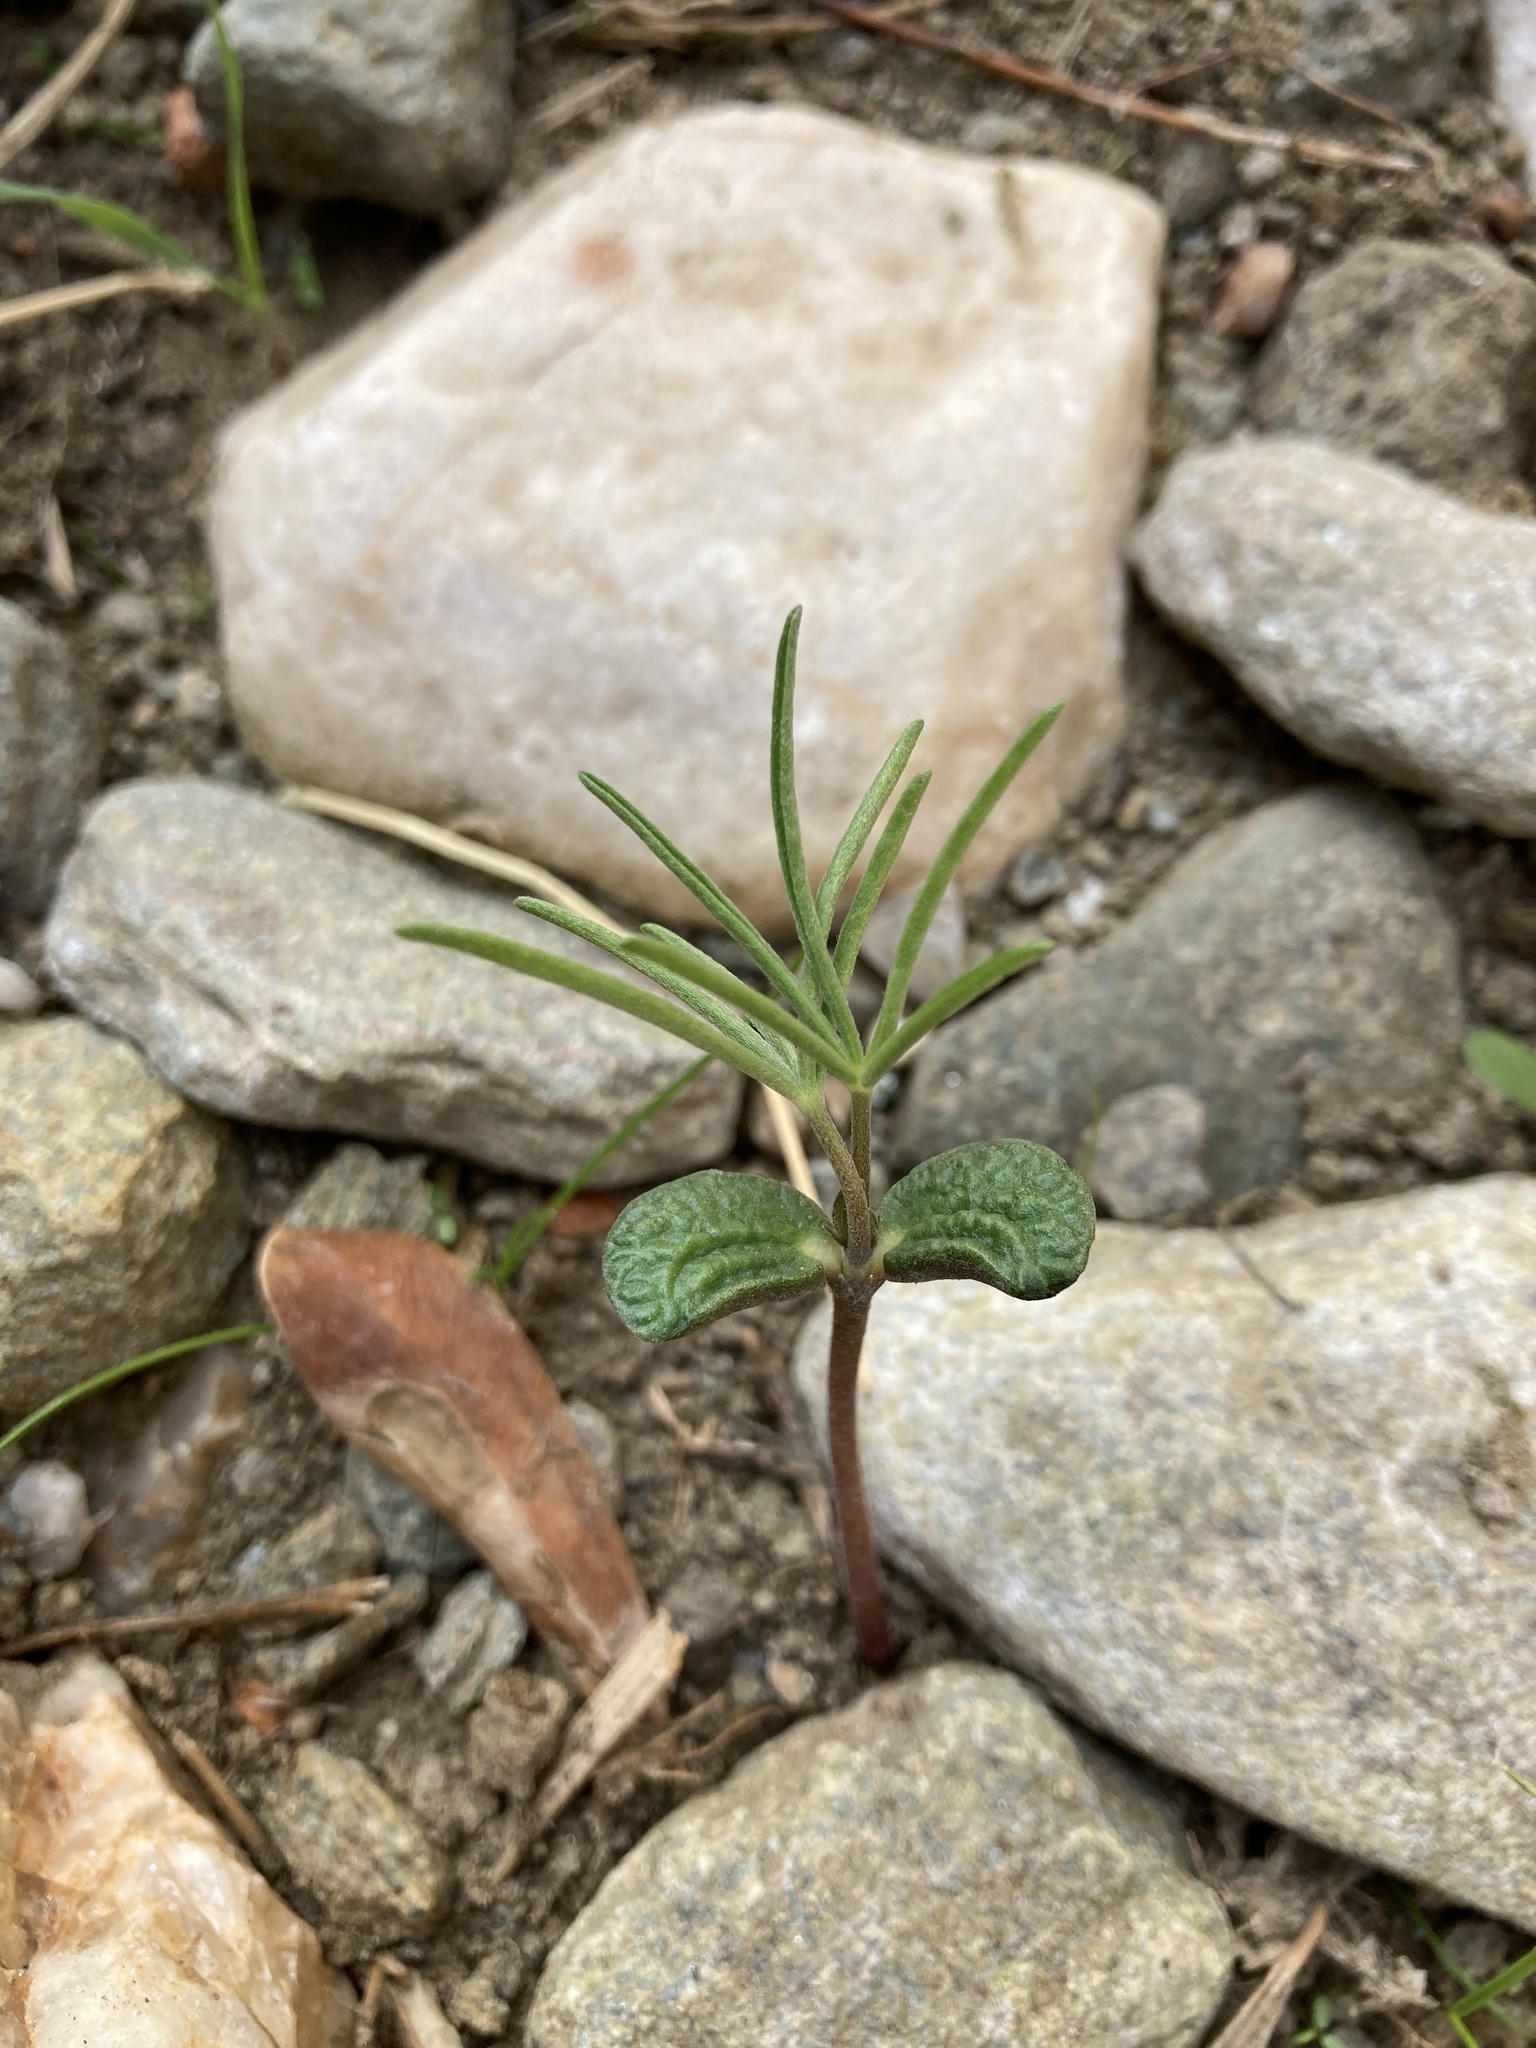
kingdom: Plantae
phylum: Tracheophyta
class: Magnoliopsida
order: Fabales
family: Fabaceae
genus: Lupinus
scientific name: Lupinus angustifolius
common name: Narrow-leaved lupin
